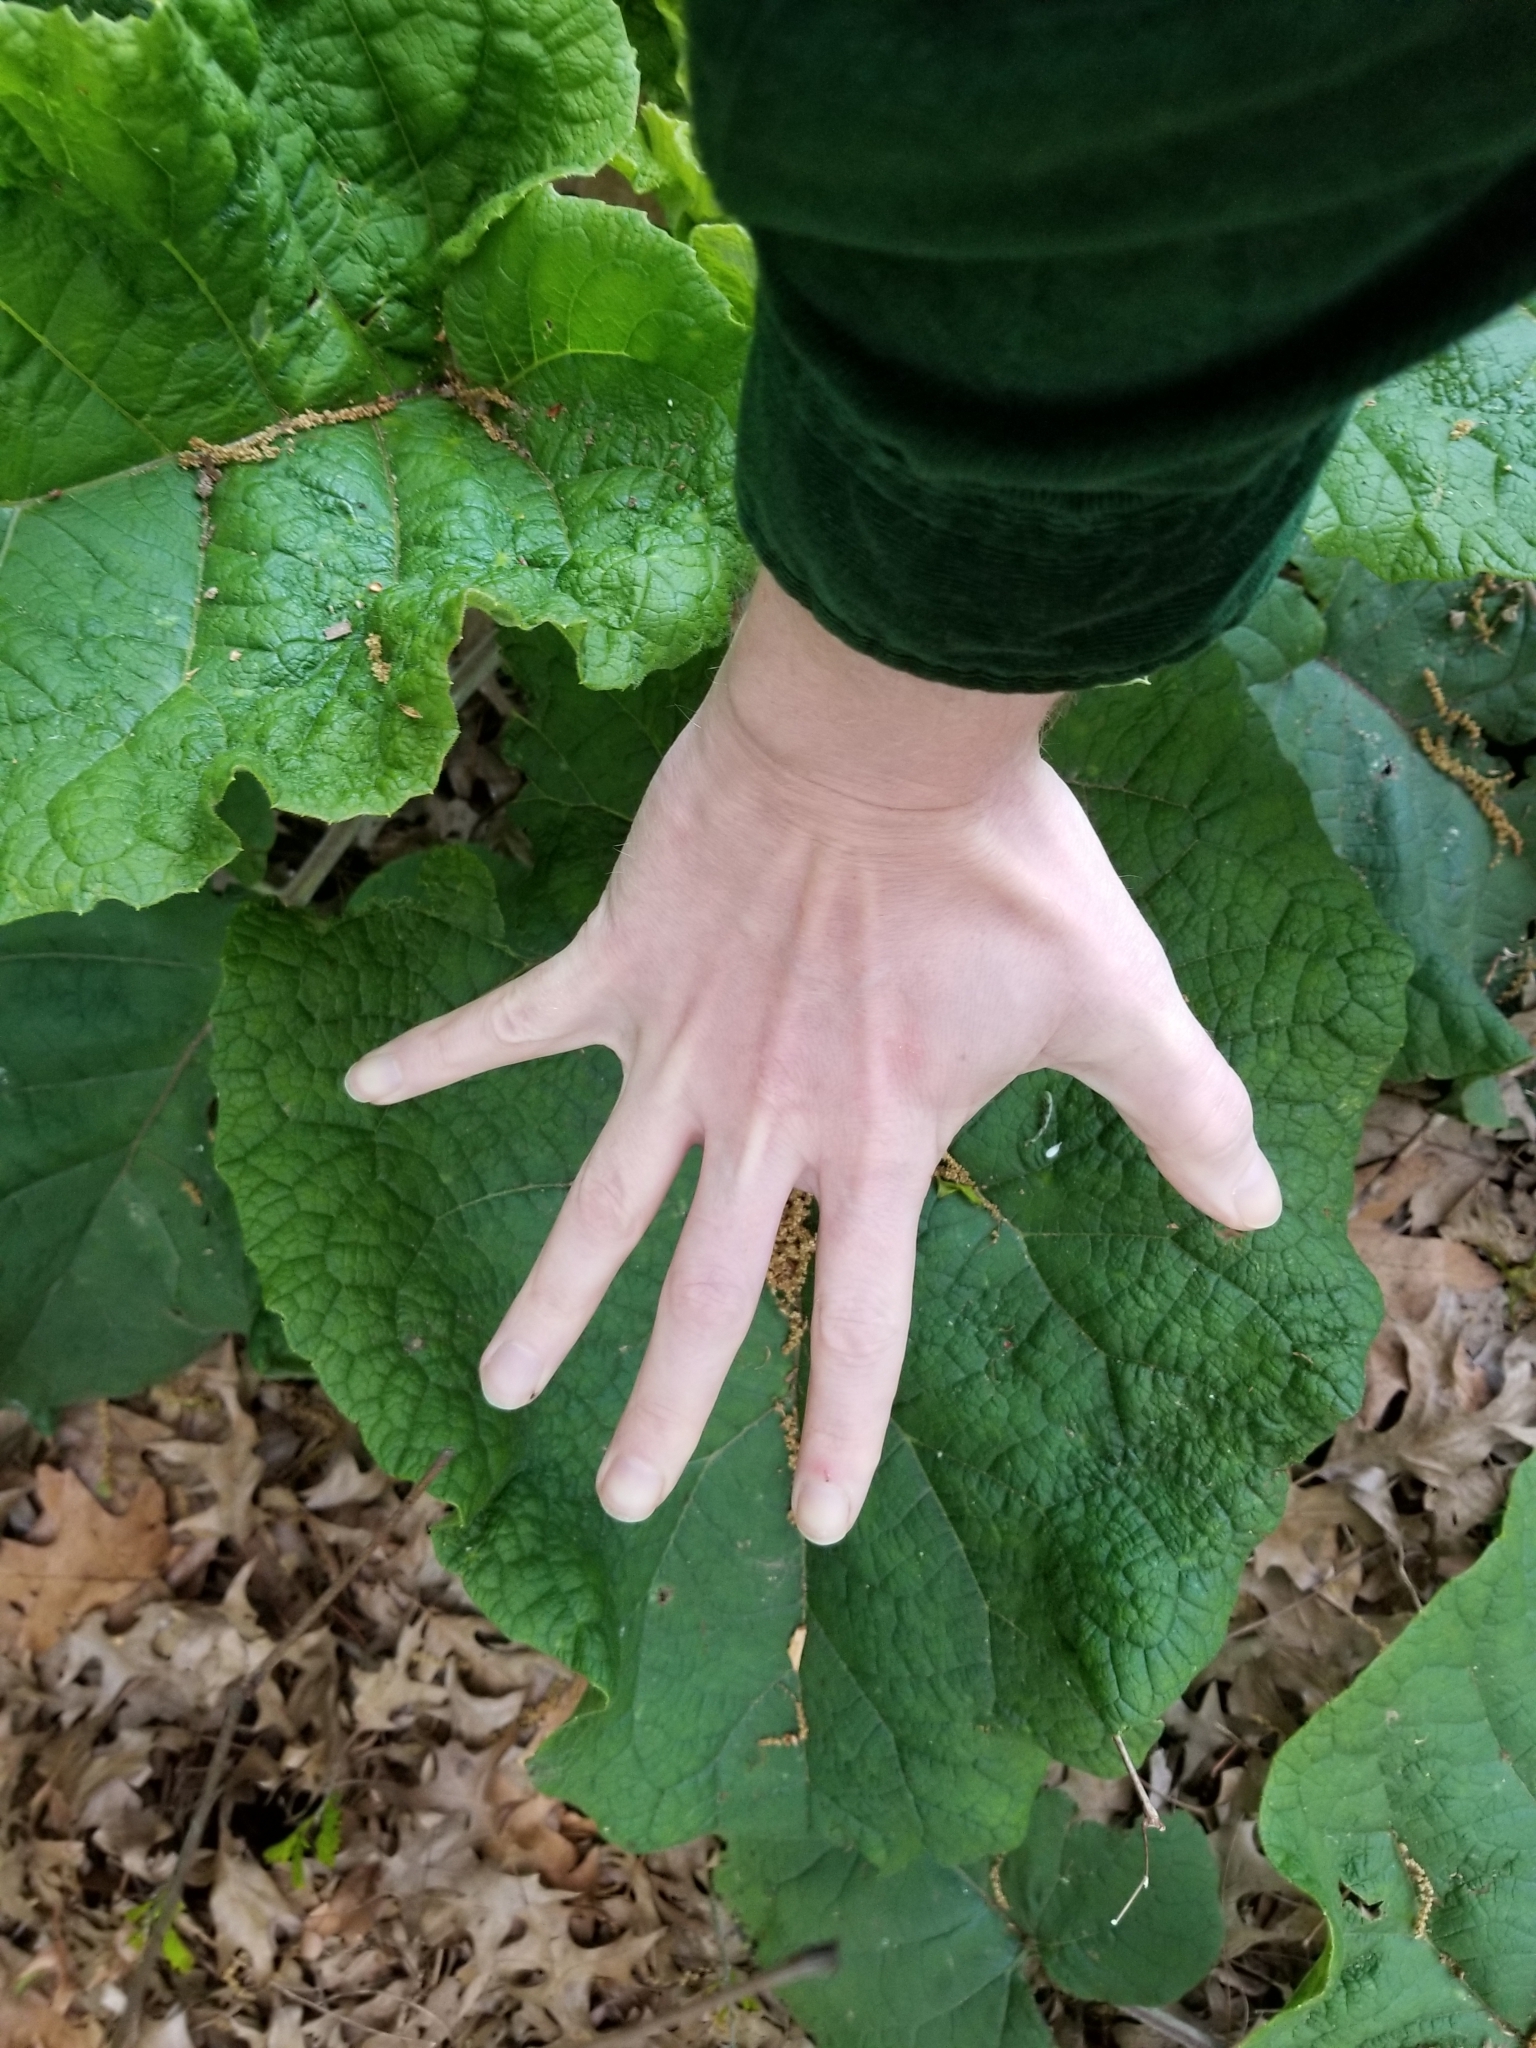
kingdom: Plantae
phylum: Tracheophyta
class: Magnoliopsida
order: Asterales
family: Asteraceae
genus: Arctium
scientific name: Arctium
